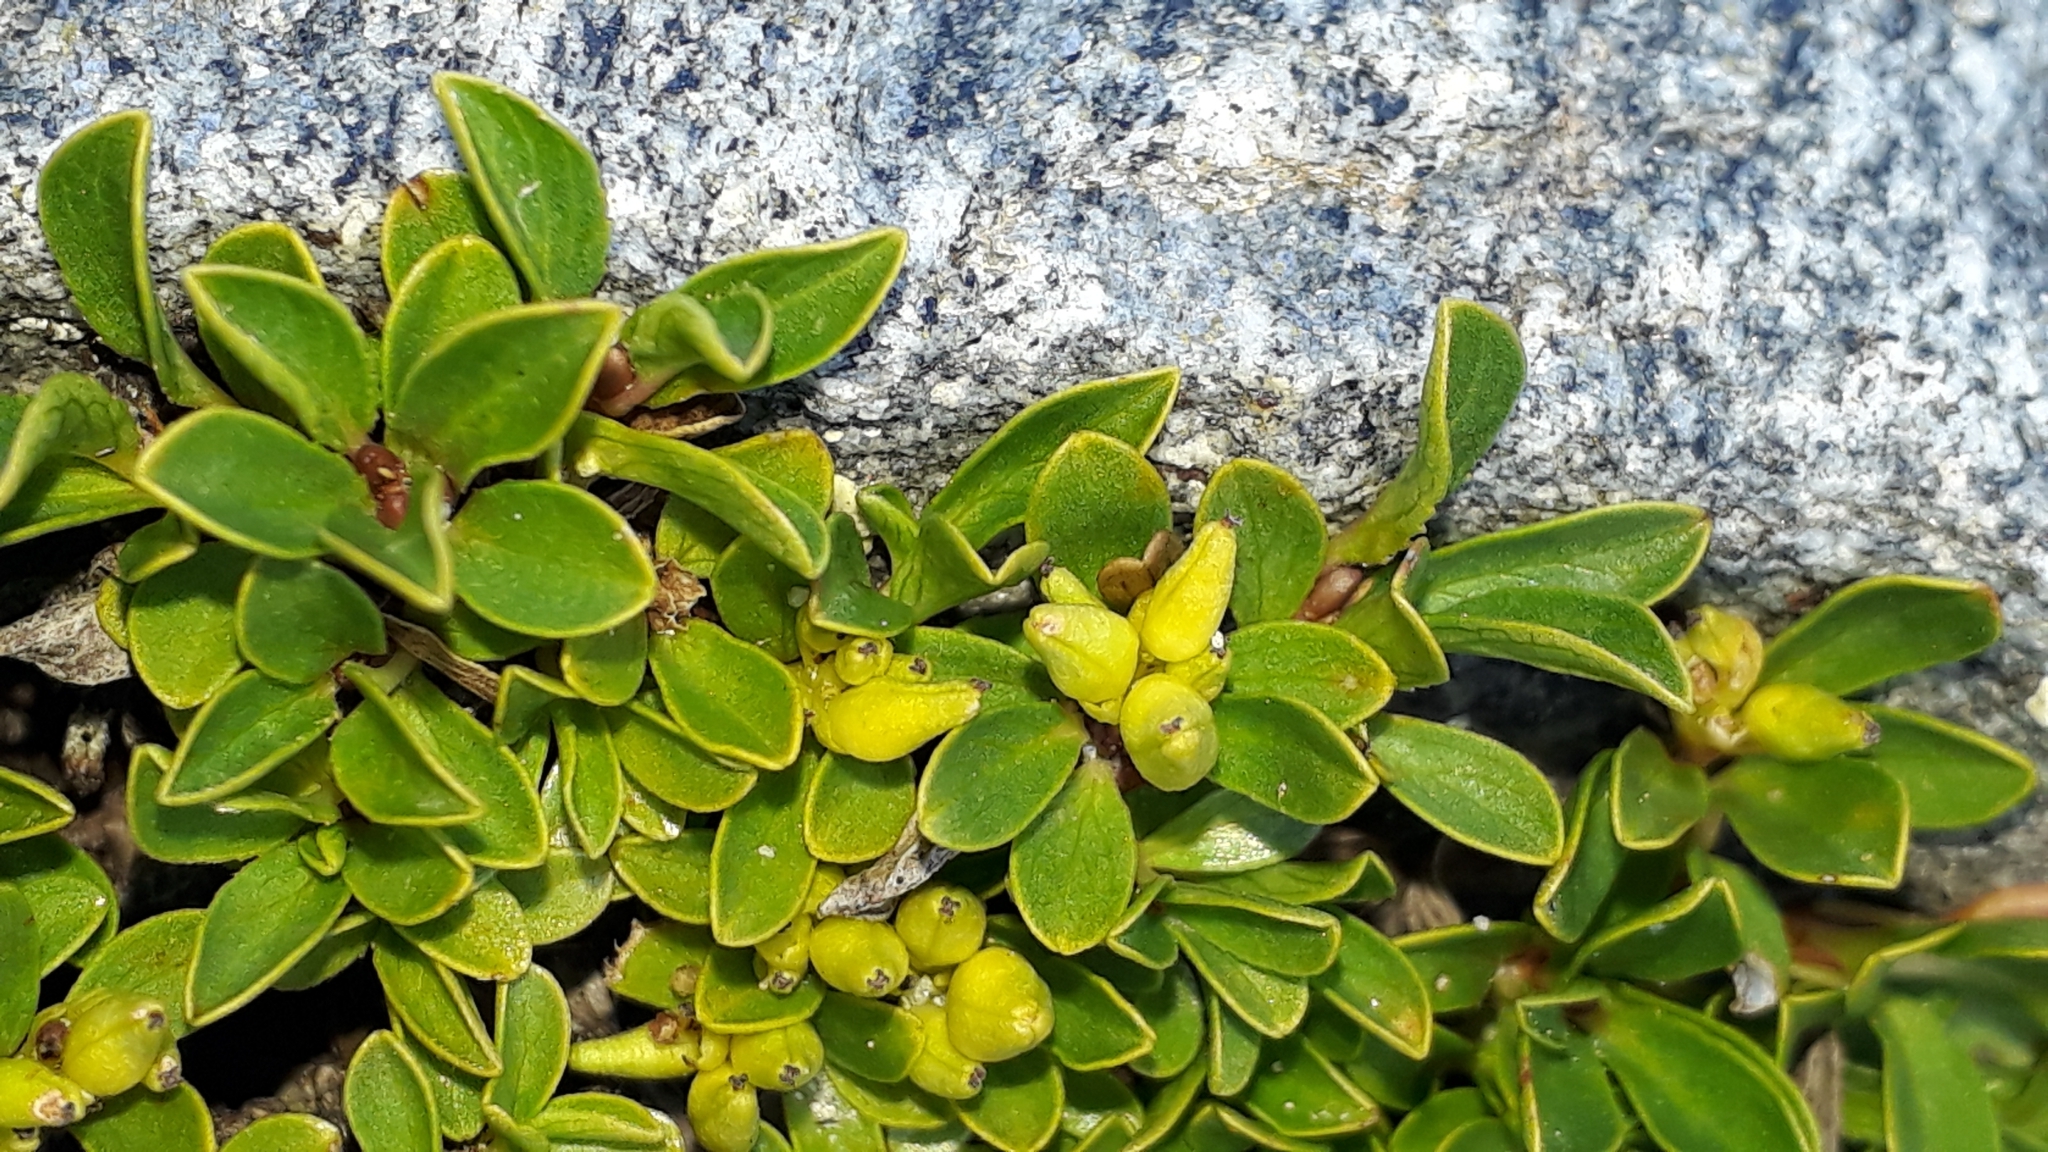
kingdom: Plantae
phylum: Tracheophyta
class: Magnoliopsida
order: Malpighiales
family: Salicaceae
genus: Salix
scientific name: Salix serpillifolia
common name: Thyme-leaf willow
